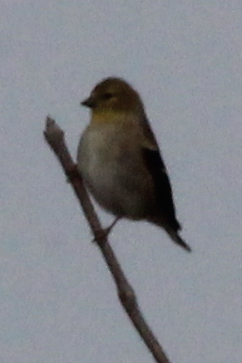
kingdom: Animalia
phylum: Chordata
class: Aves
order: Passeriformes
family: Fringillidae
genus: Spinus
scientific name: Spinus tristis
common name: American goldfinch
